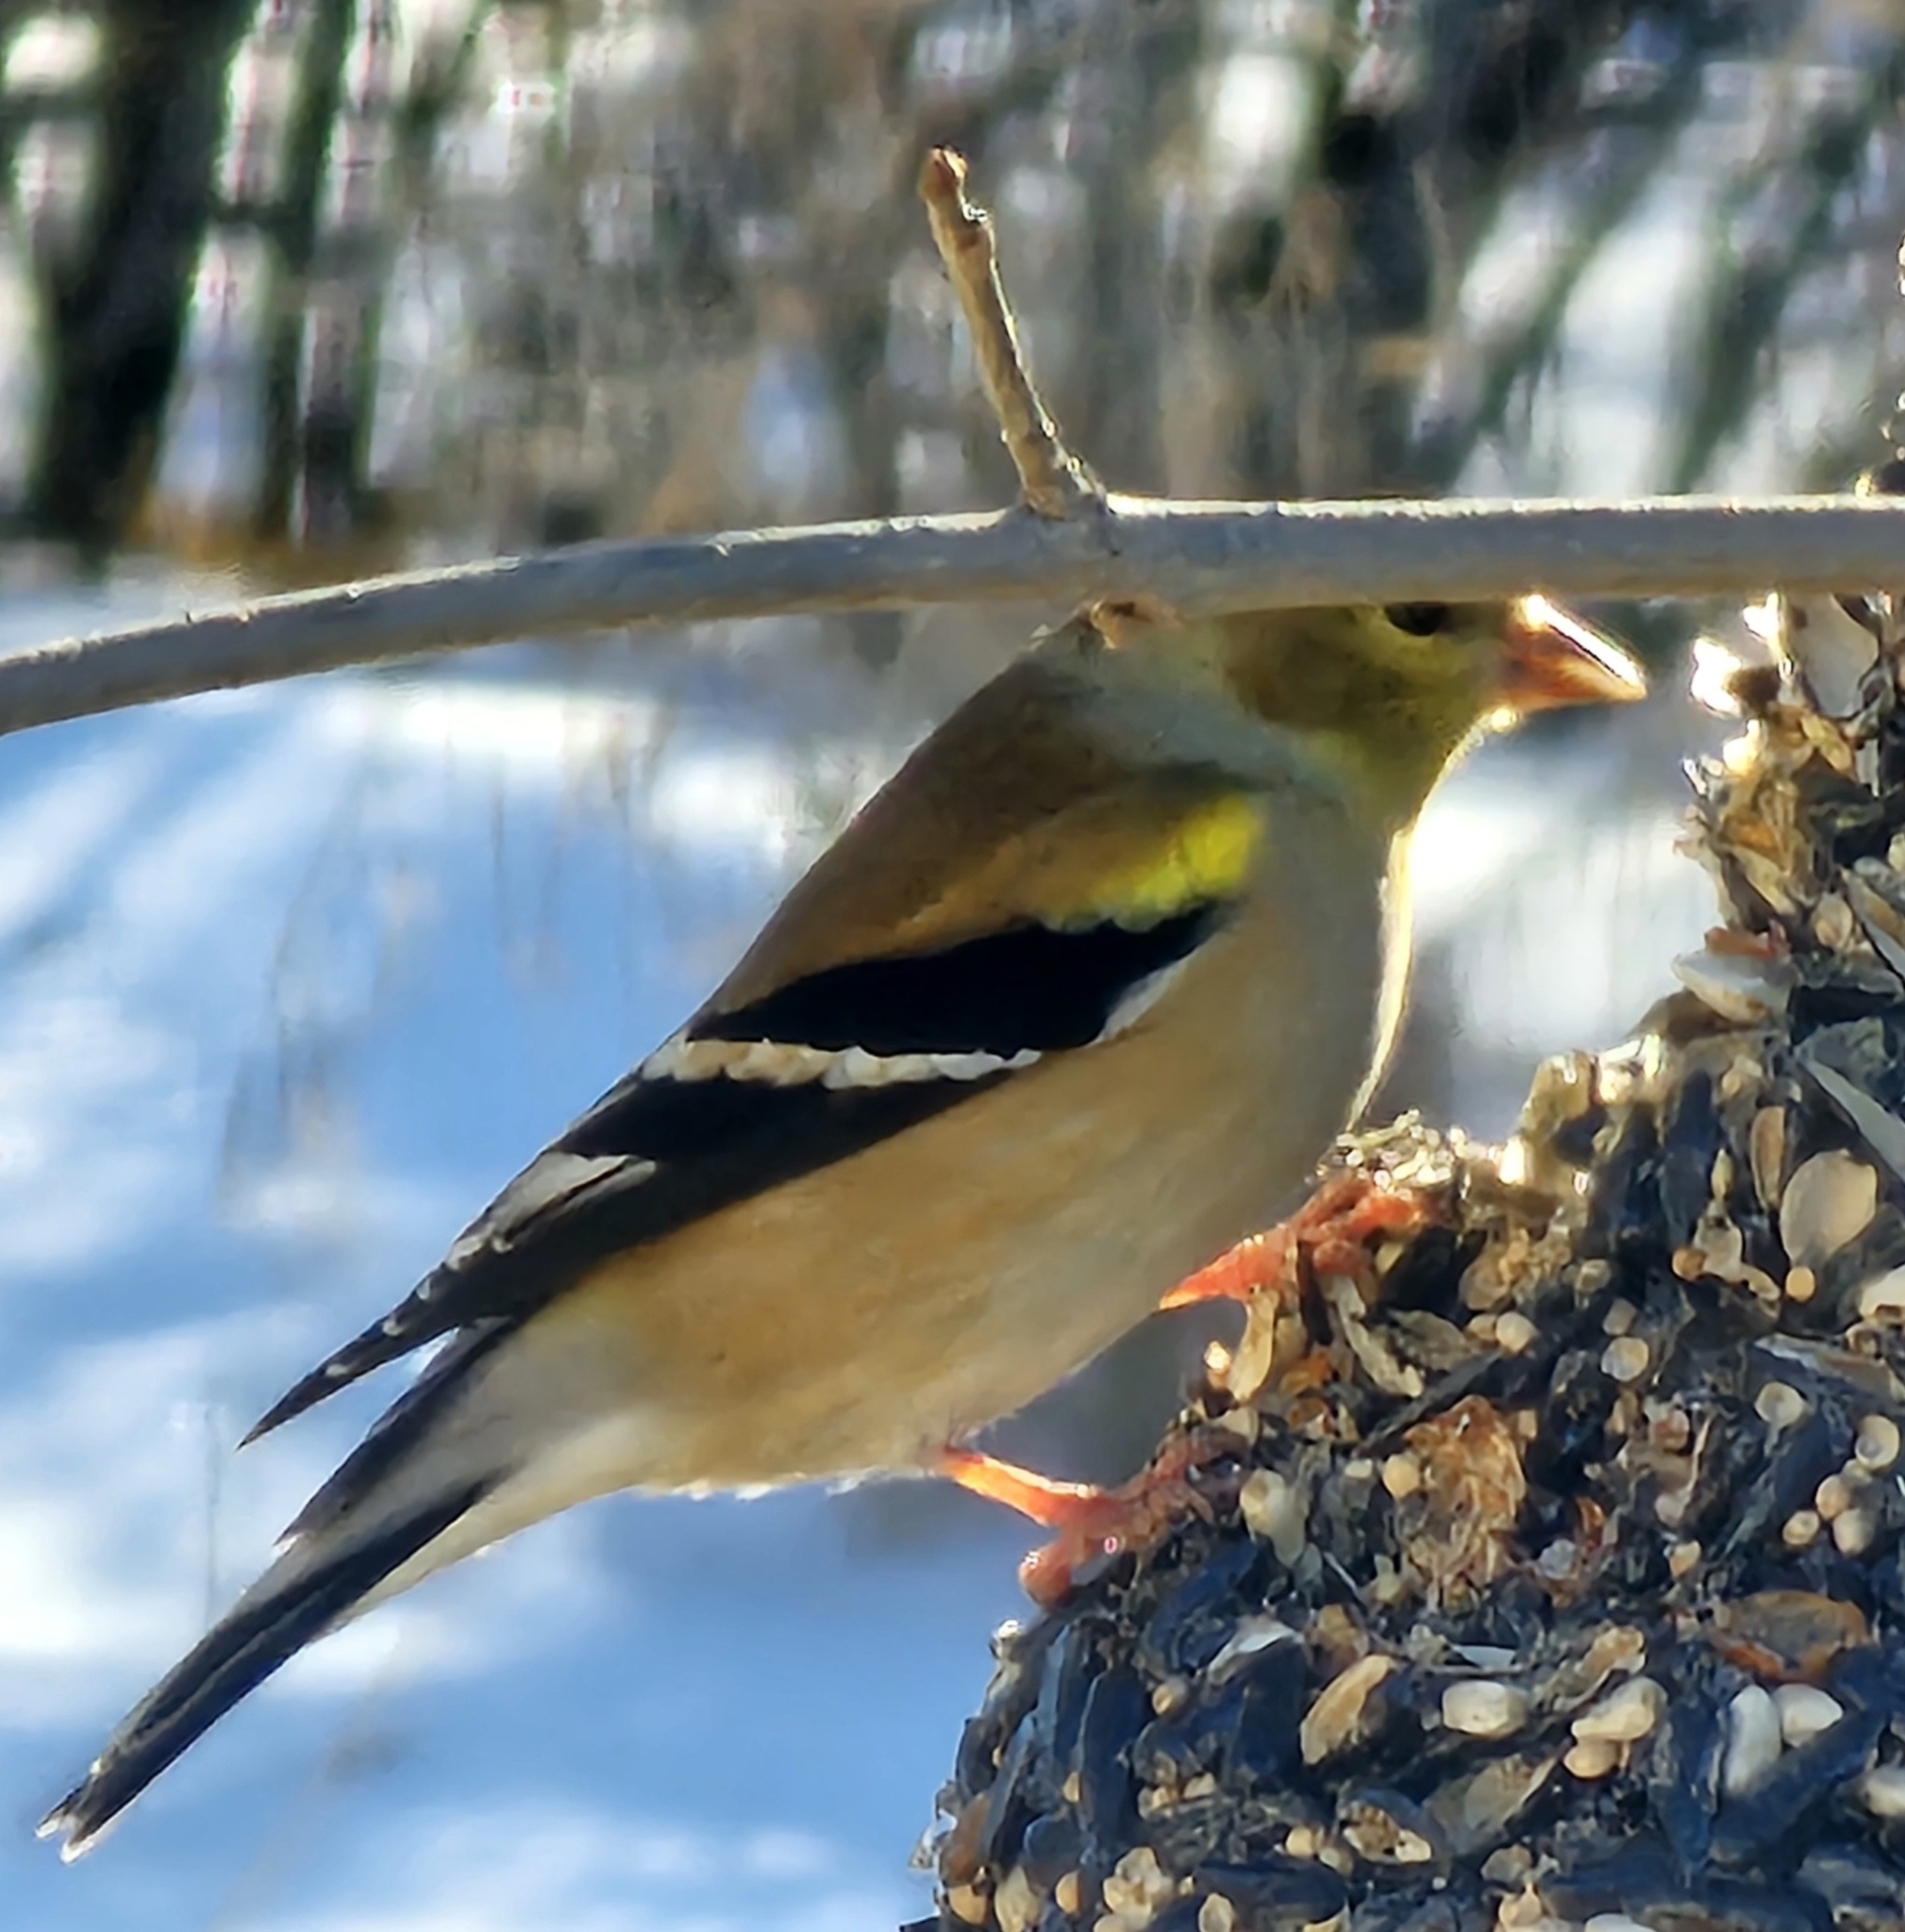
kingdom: Animalia
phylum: Chordata
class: Aves
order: Passeriformes
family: Fringillidae
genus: Spinus
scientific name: Spinus tristis
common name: American goldfinch
